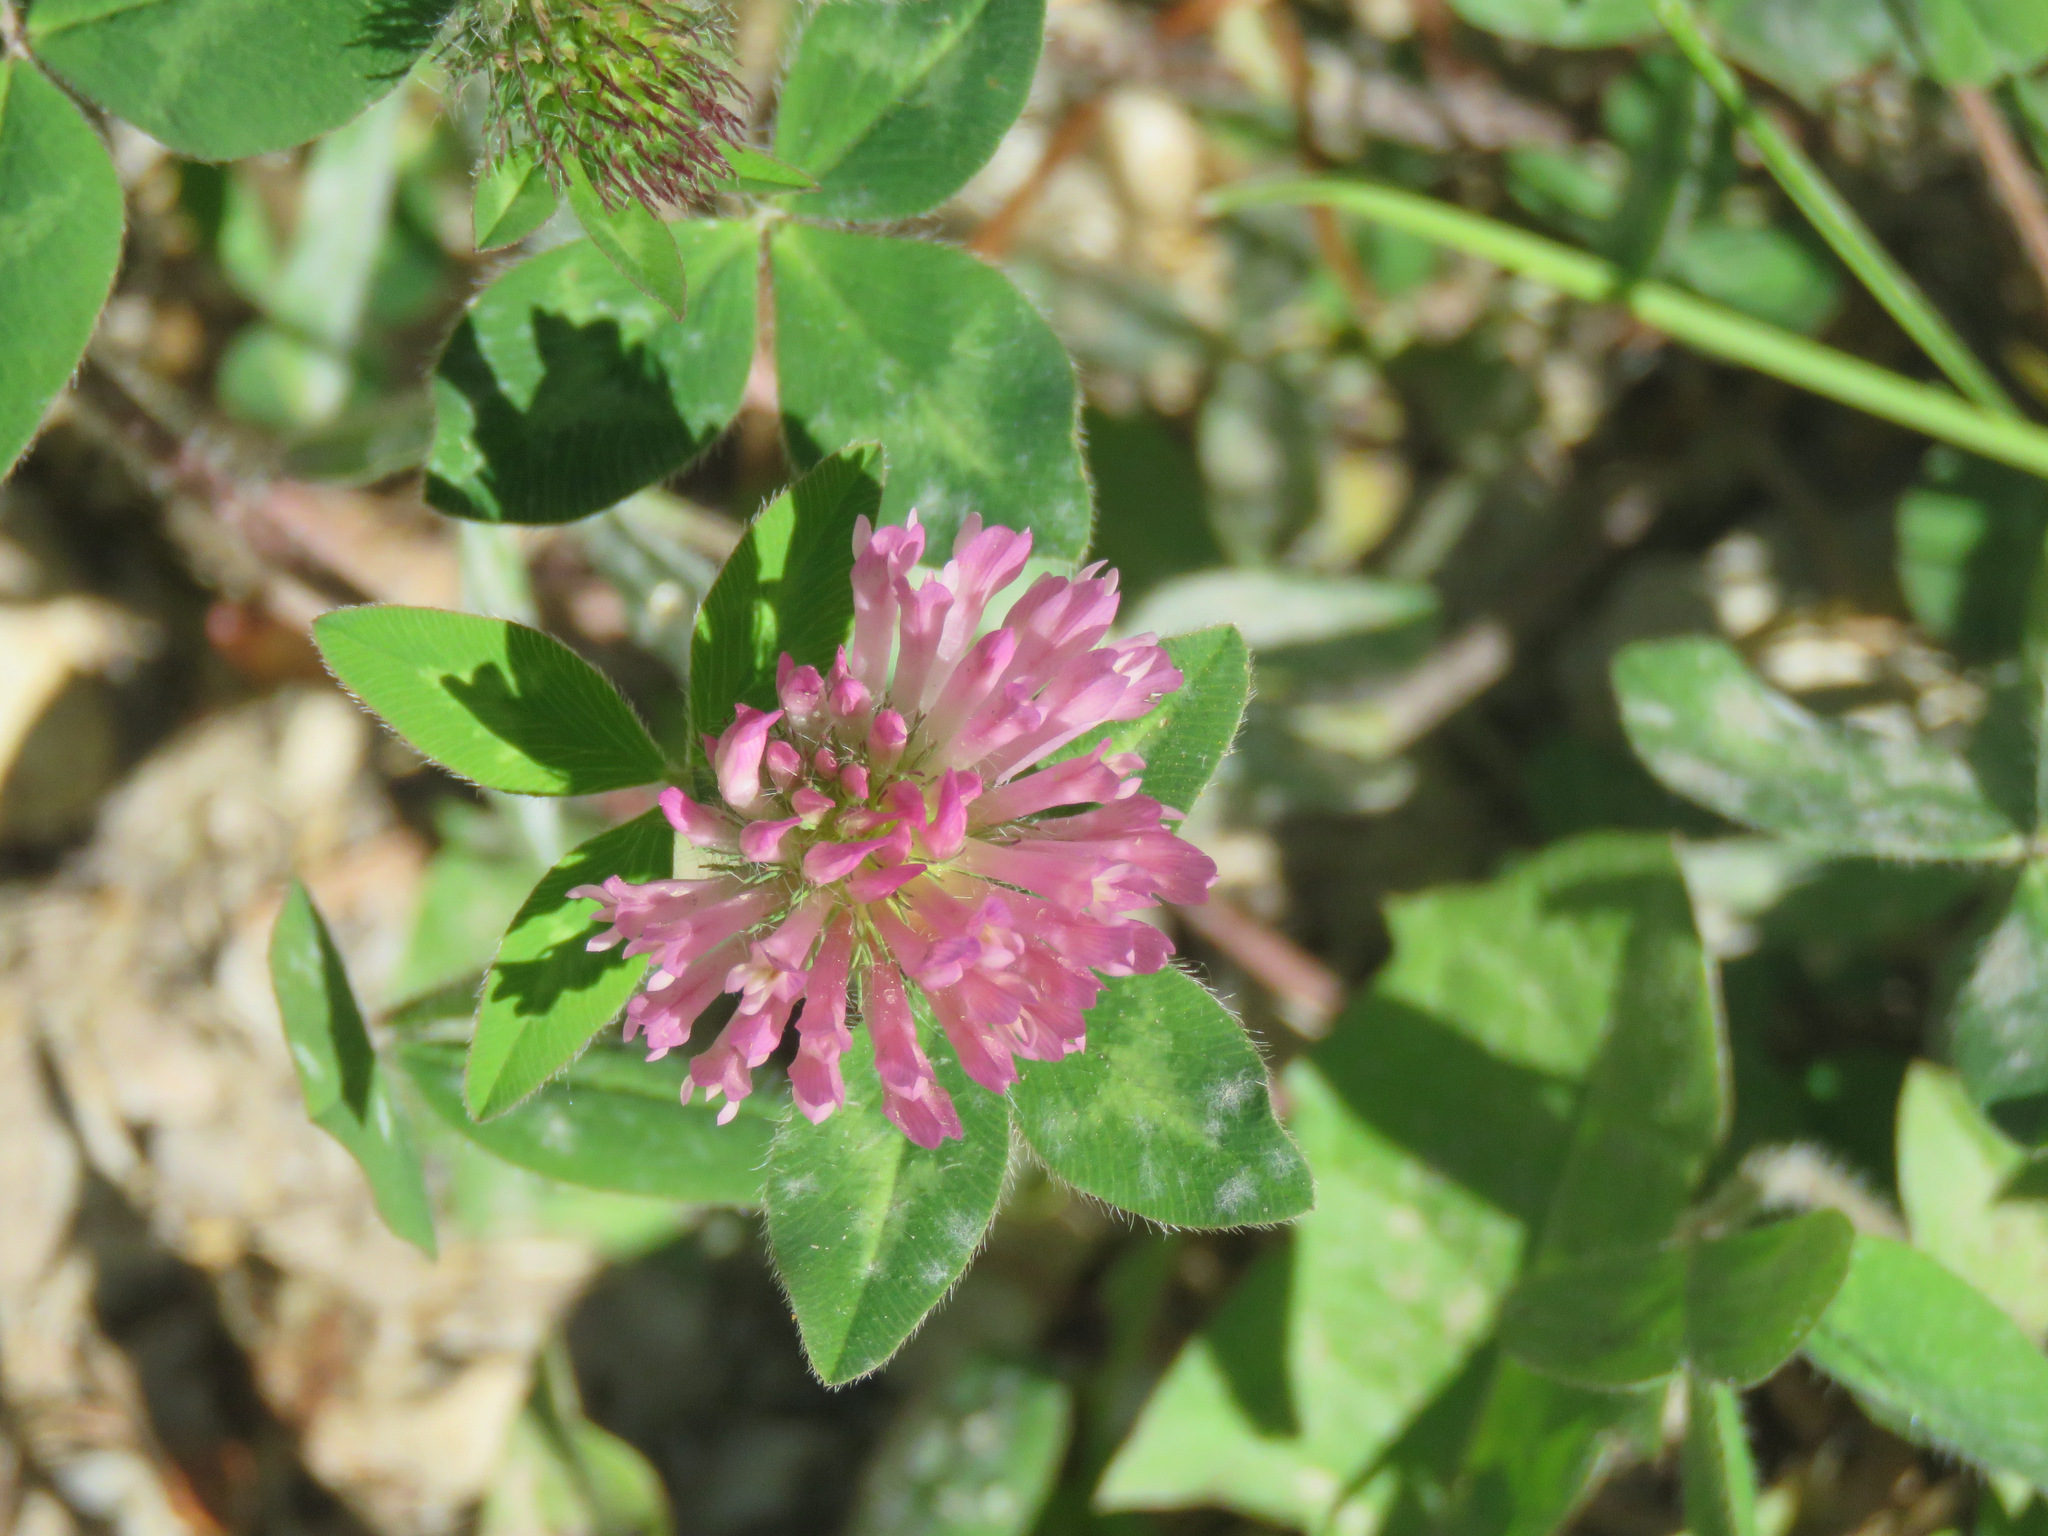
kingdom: Plantae
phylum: Tracheophyta
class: Magnoliopsida
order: Fabales
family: Fabaceae
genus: Trifolium
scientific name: Trifolium pratense
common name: Red clover
